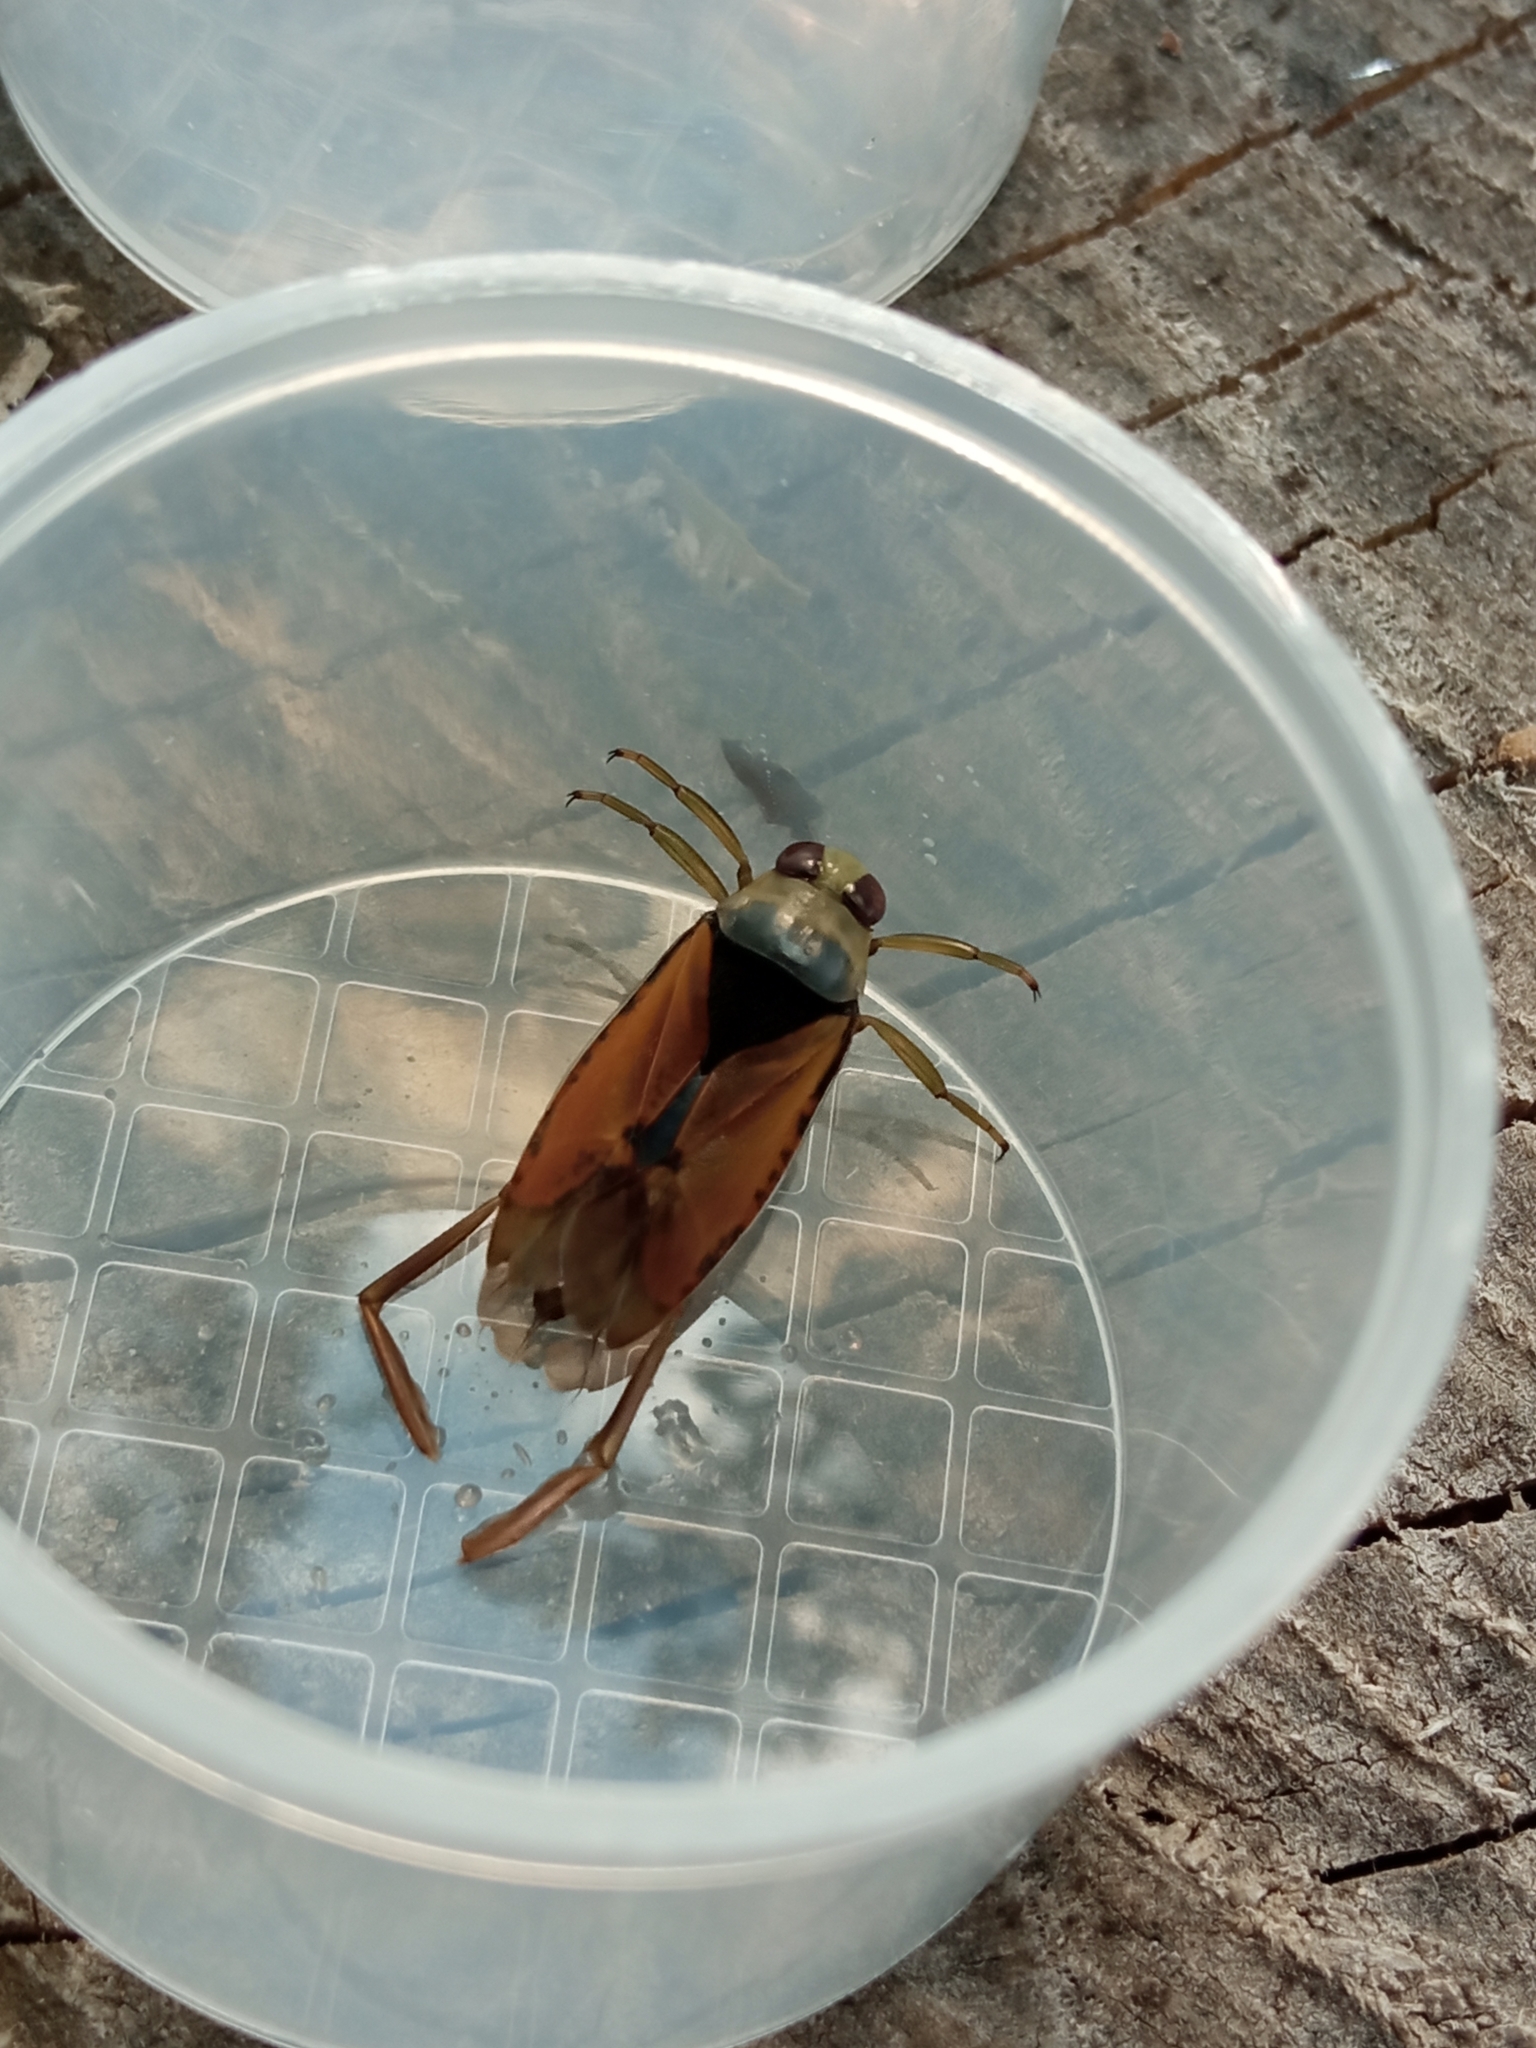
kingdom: Animalia
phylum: Arthropoda
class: Insecta
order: Hemiptera
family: Notonectidae
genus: Notonecta
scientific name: Notonecta glauca
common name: Common water-boatman
